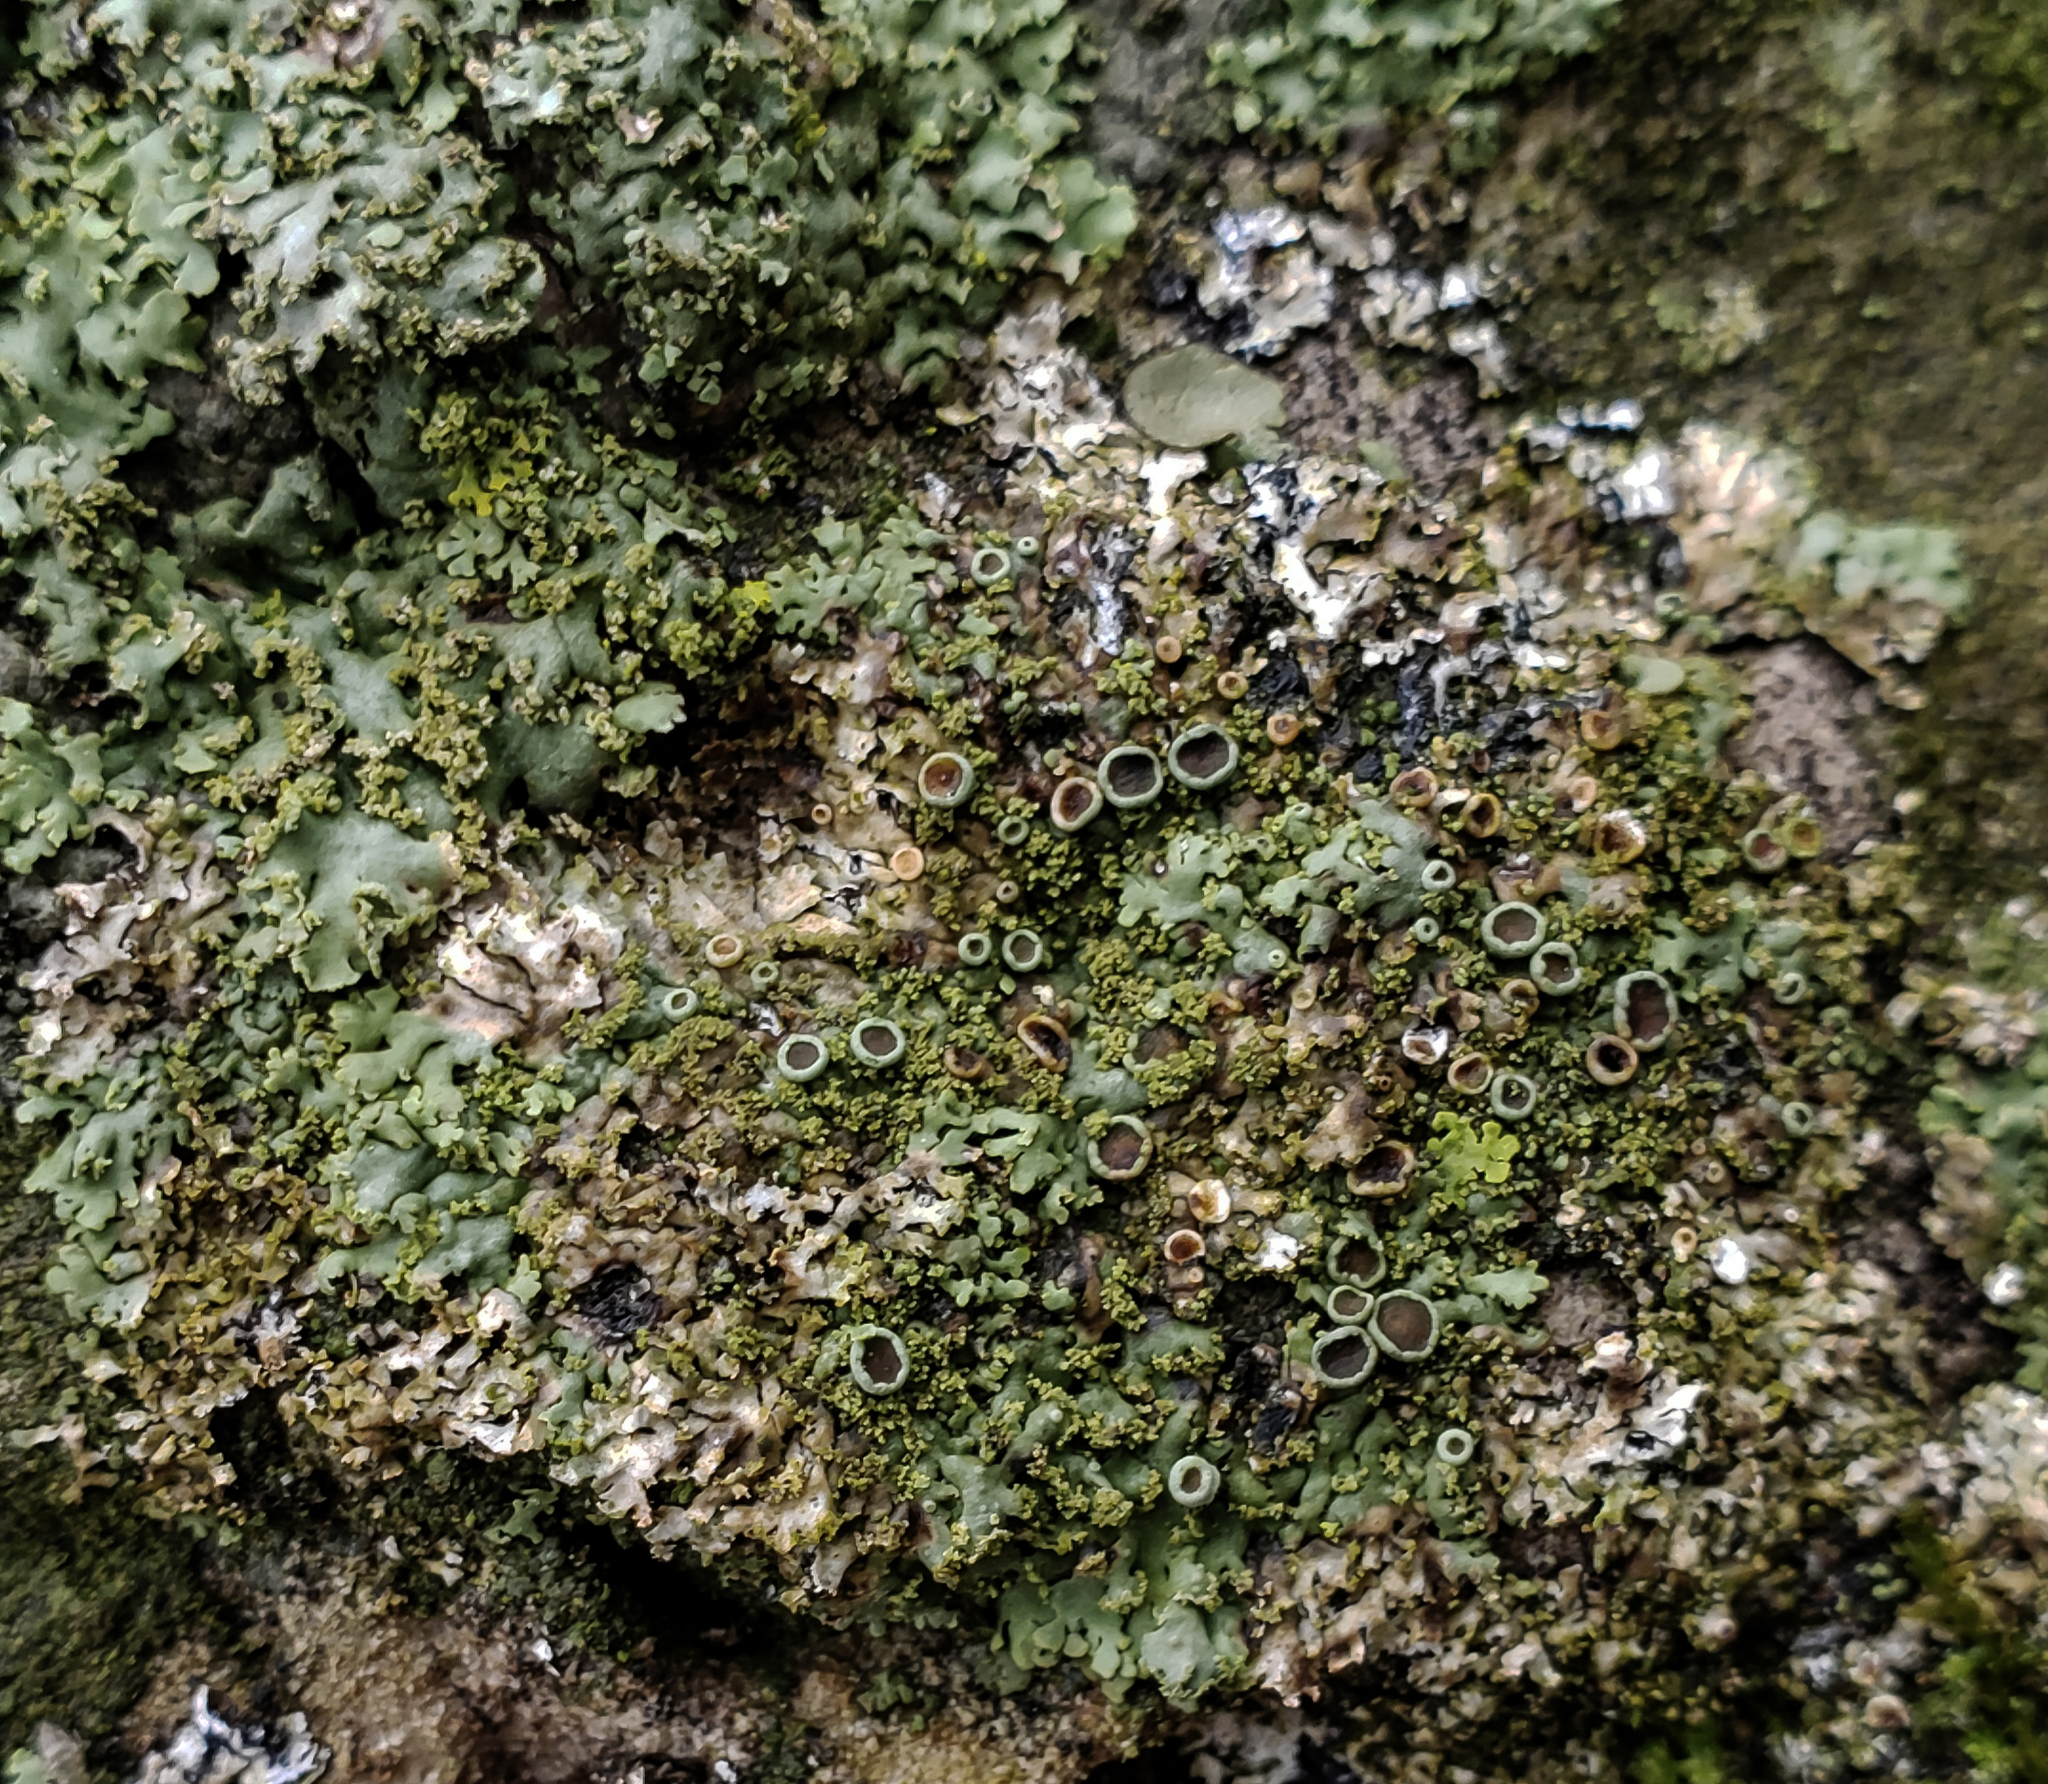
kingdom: Fungi
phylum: Ascomycota
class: Lecanoromycetes
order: Caliciales
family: Physciaceae
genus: Phaeophyscia
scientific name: Phaeophyscia adiastola
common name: Powder-tipped shadow lichen
